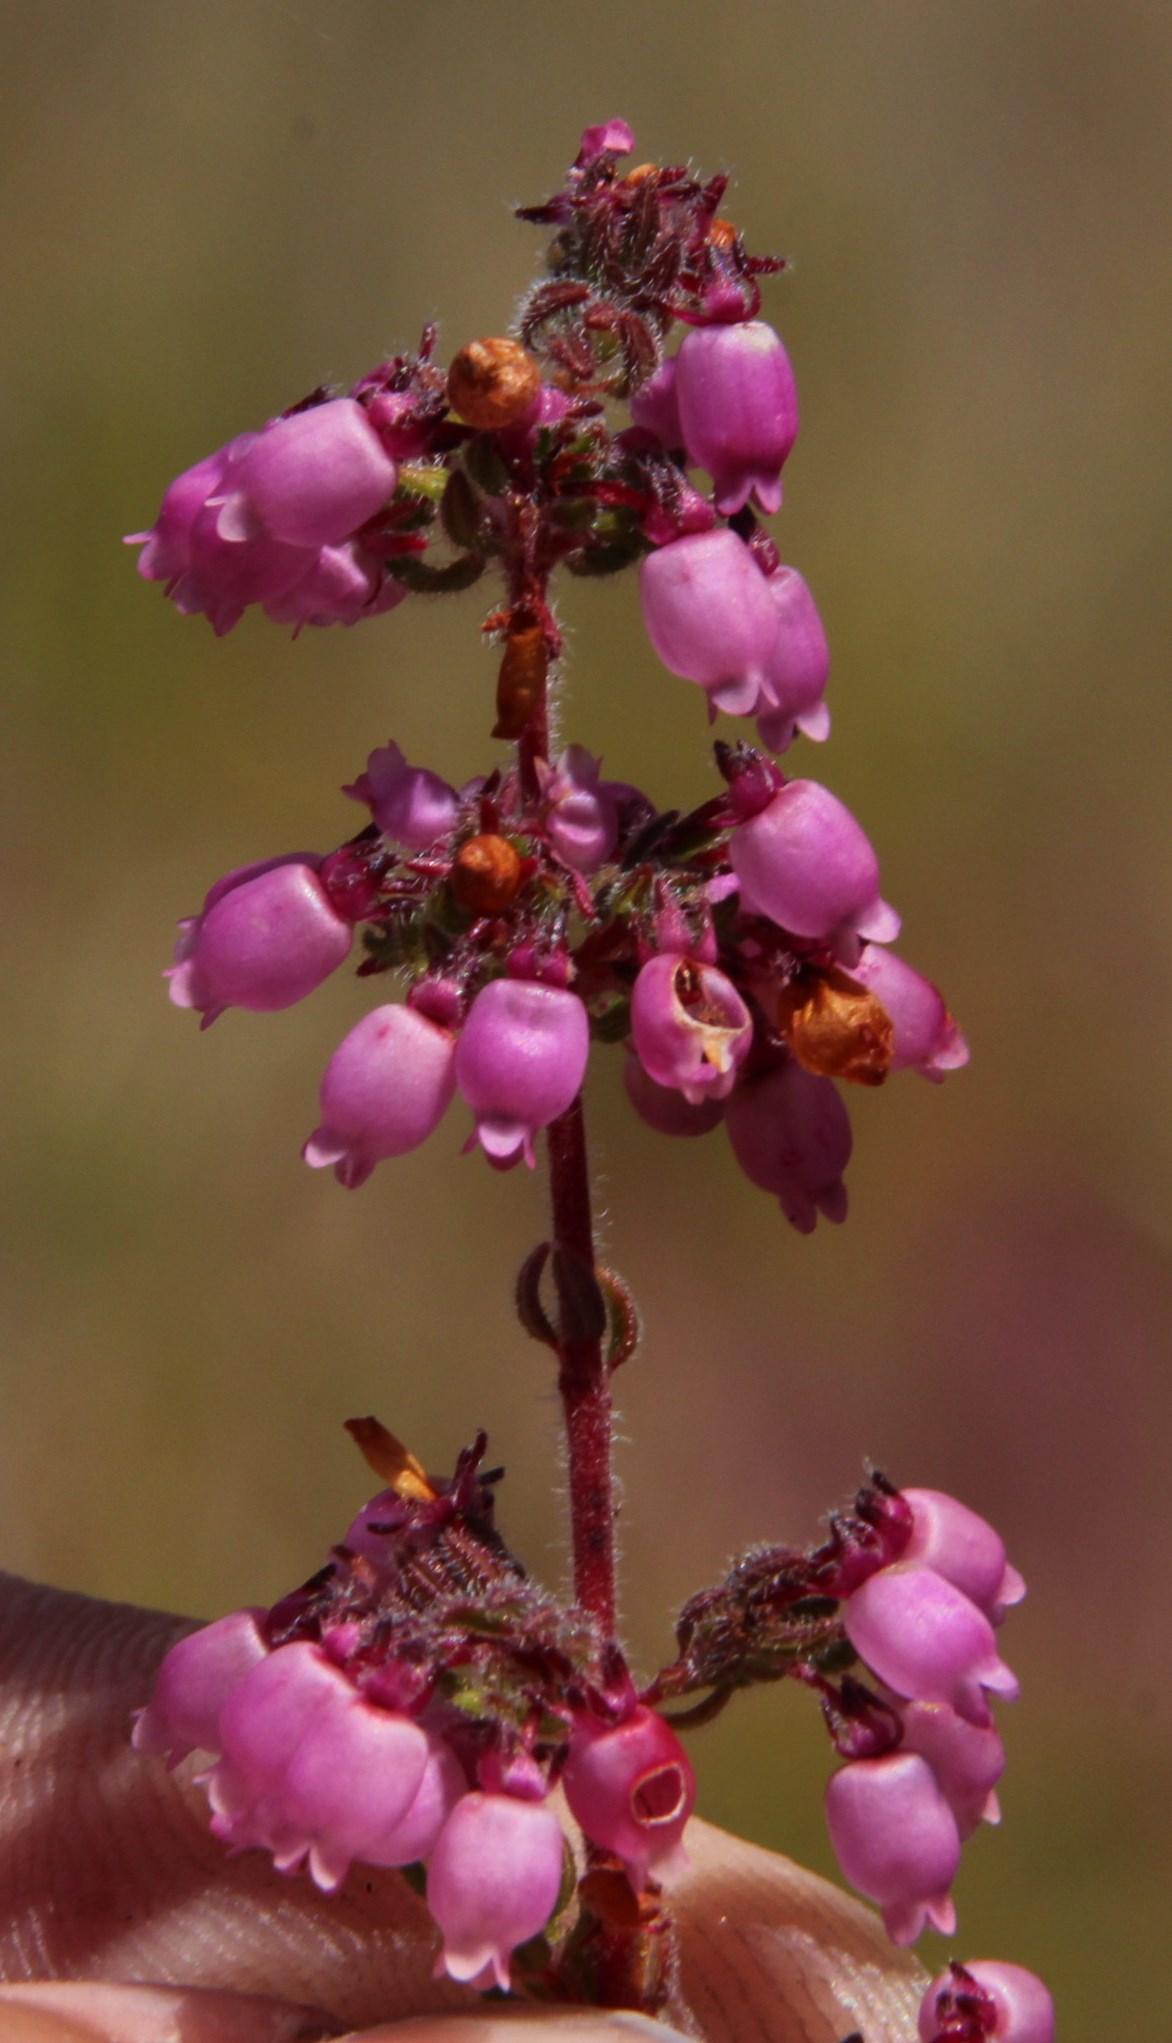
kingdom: Plantae
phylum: Tracheophyta
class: Magnoliopsida
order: Ericales
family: Ericaceae
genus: Erica
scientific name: Erica bergiana
